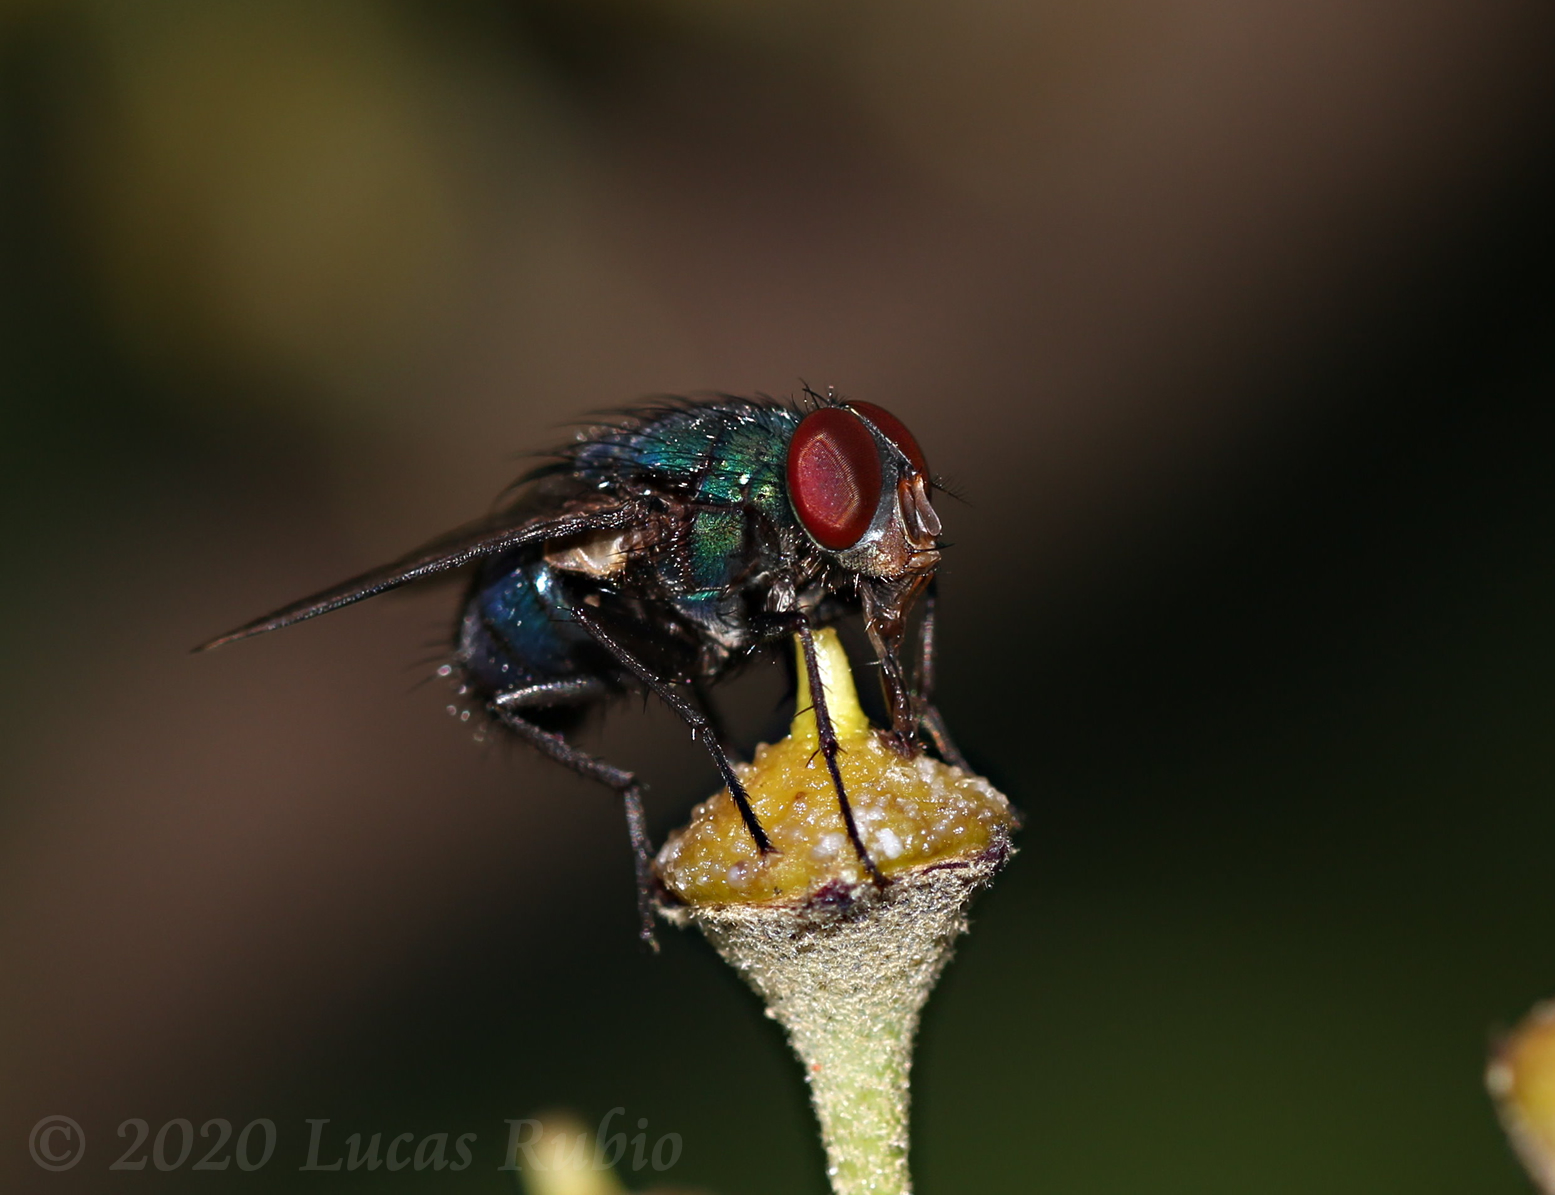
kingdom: Animalia
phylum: Arthropoda
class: Insecta
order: Diptera
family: Calliphoridae
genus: Lucilia
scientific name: Lucilia eximia
